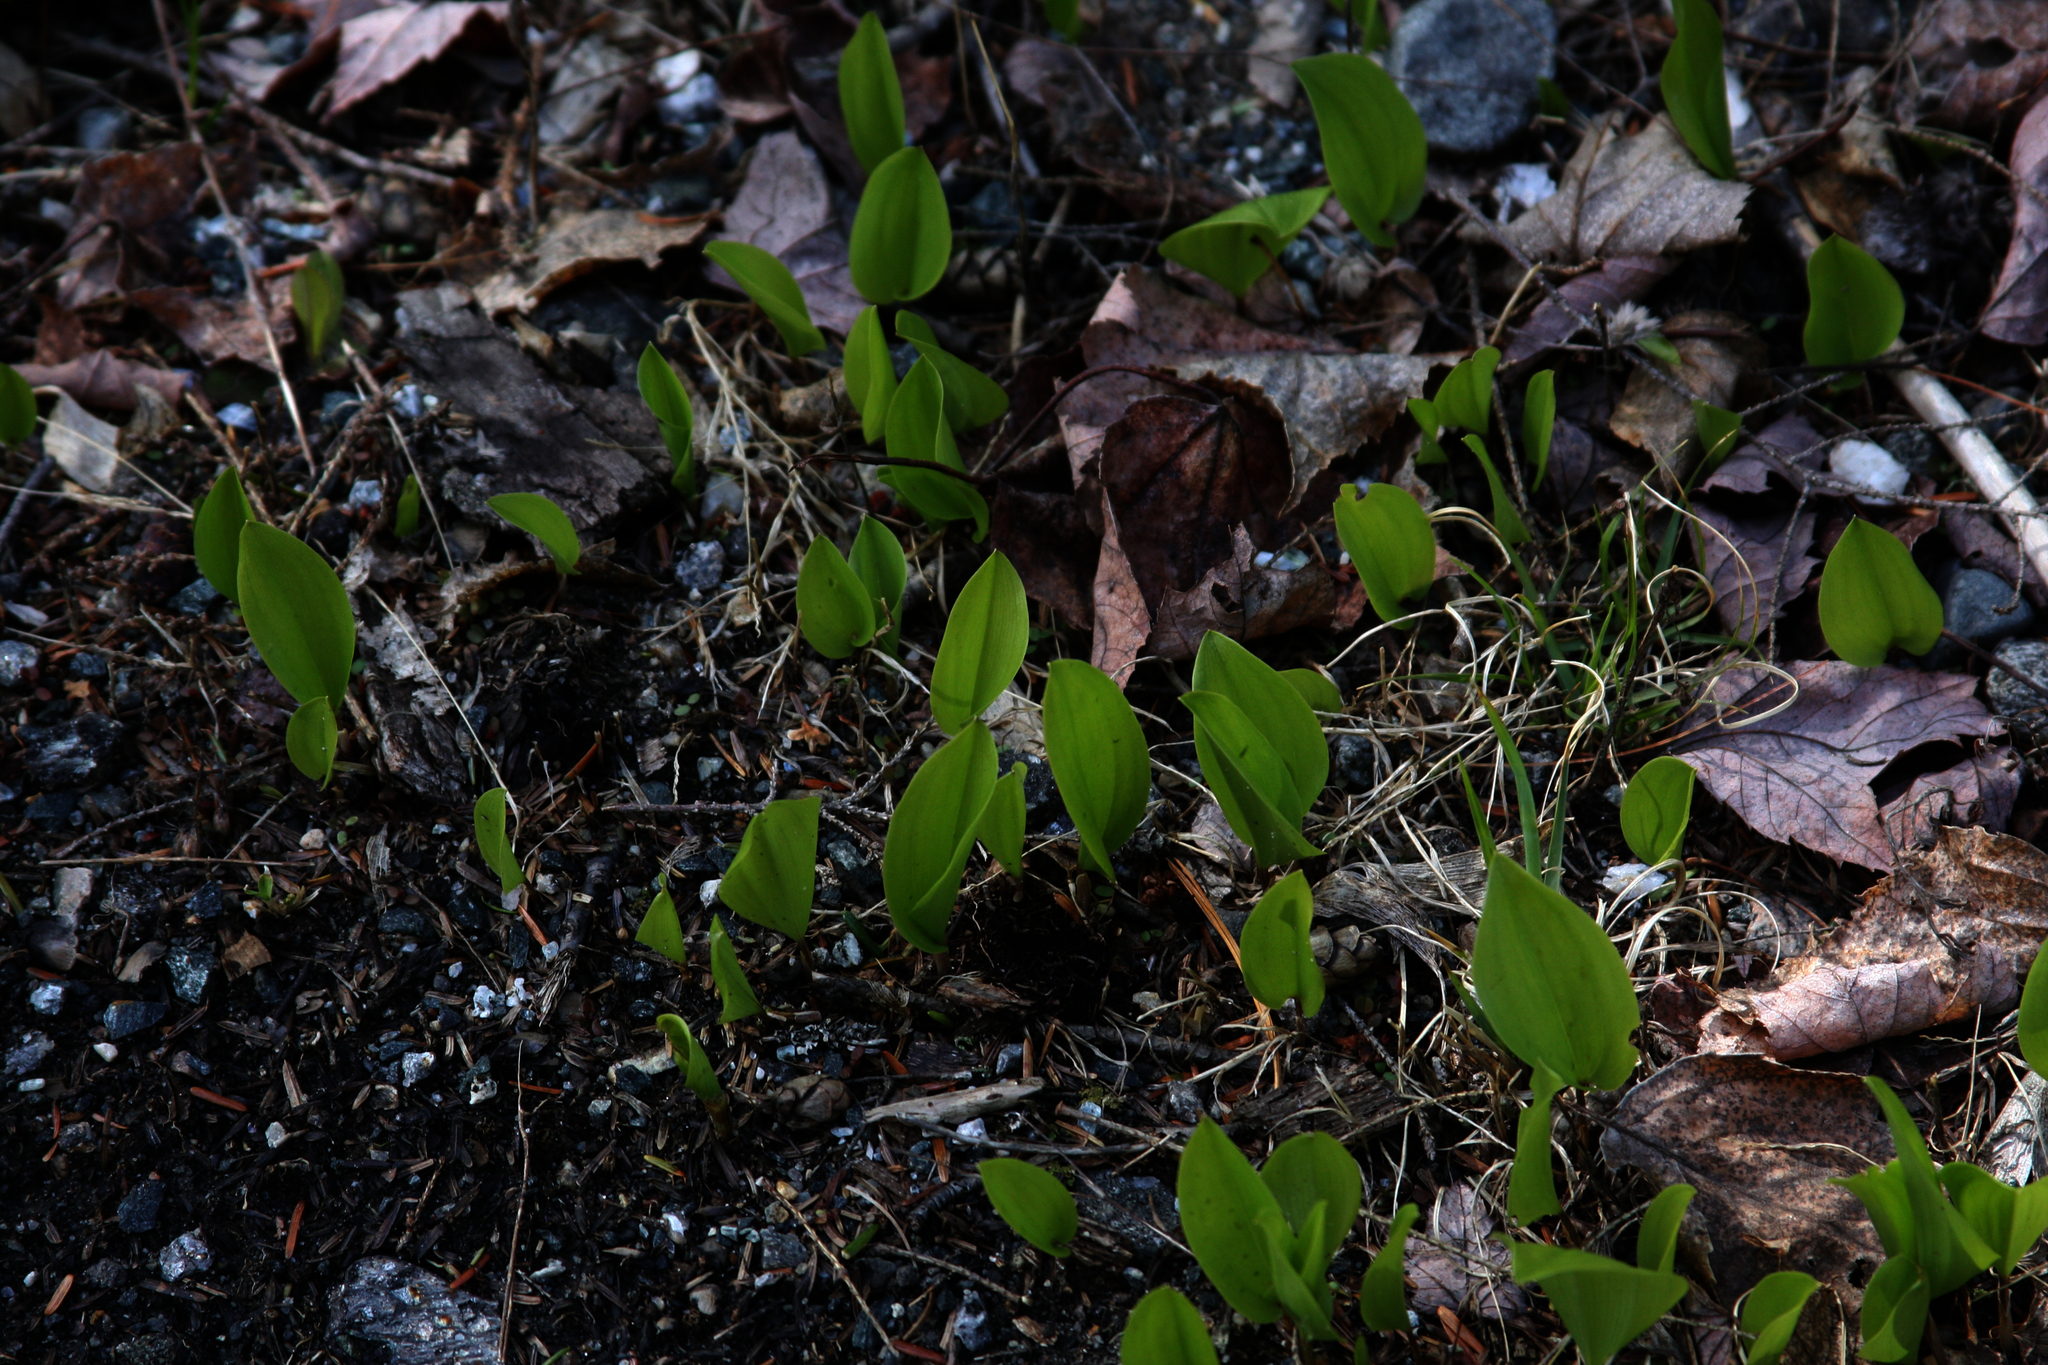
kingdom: Plantae
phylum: Tracheophyta
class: Liliopsida
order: Asparagales
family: Asparagaceae
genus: Maianthemum
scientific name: Maianthemum canadense
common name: False lily-of-the-valley
